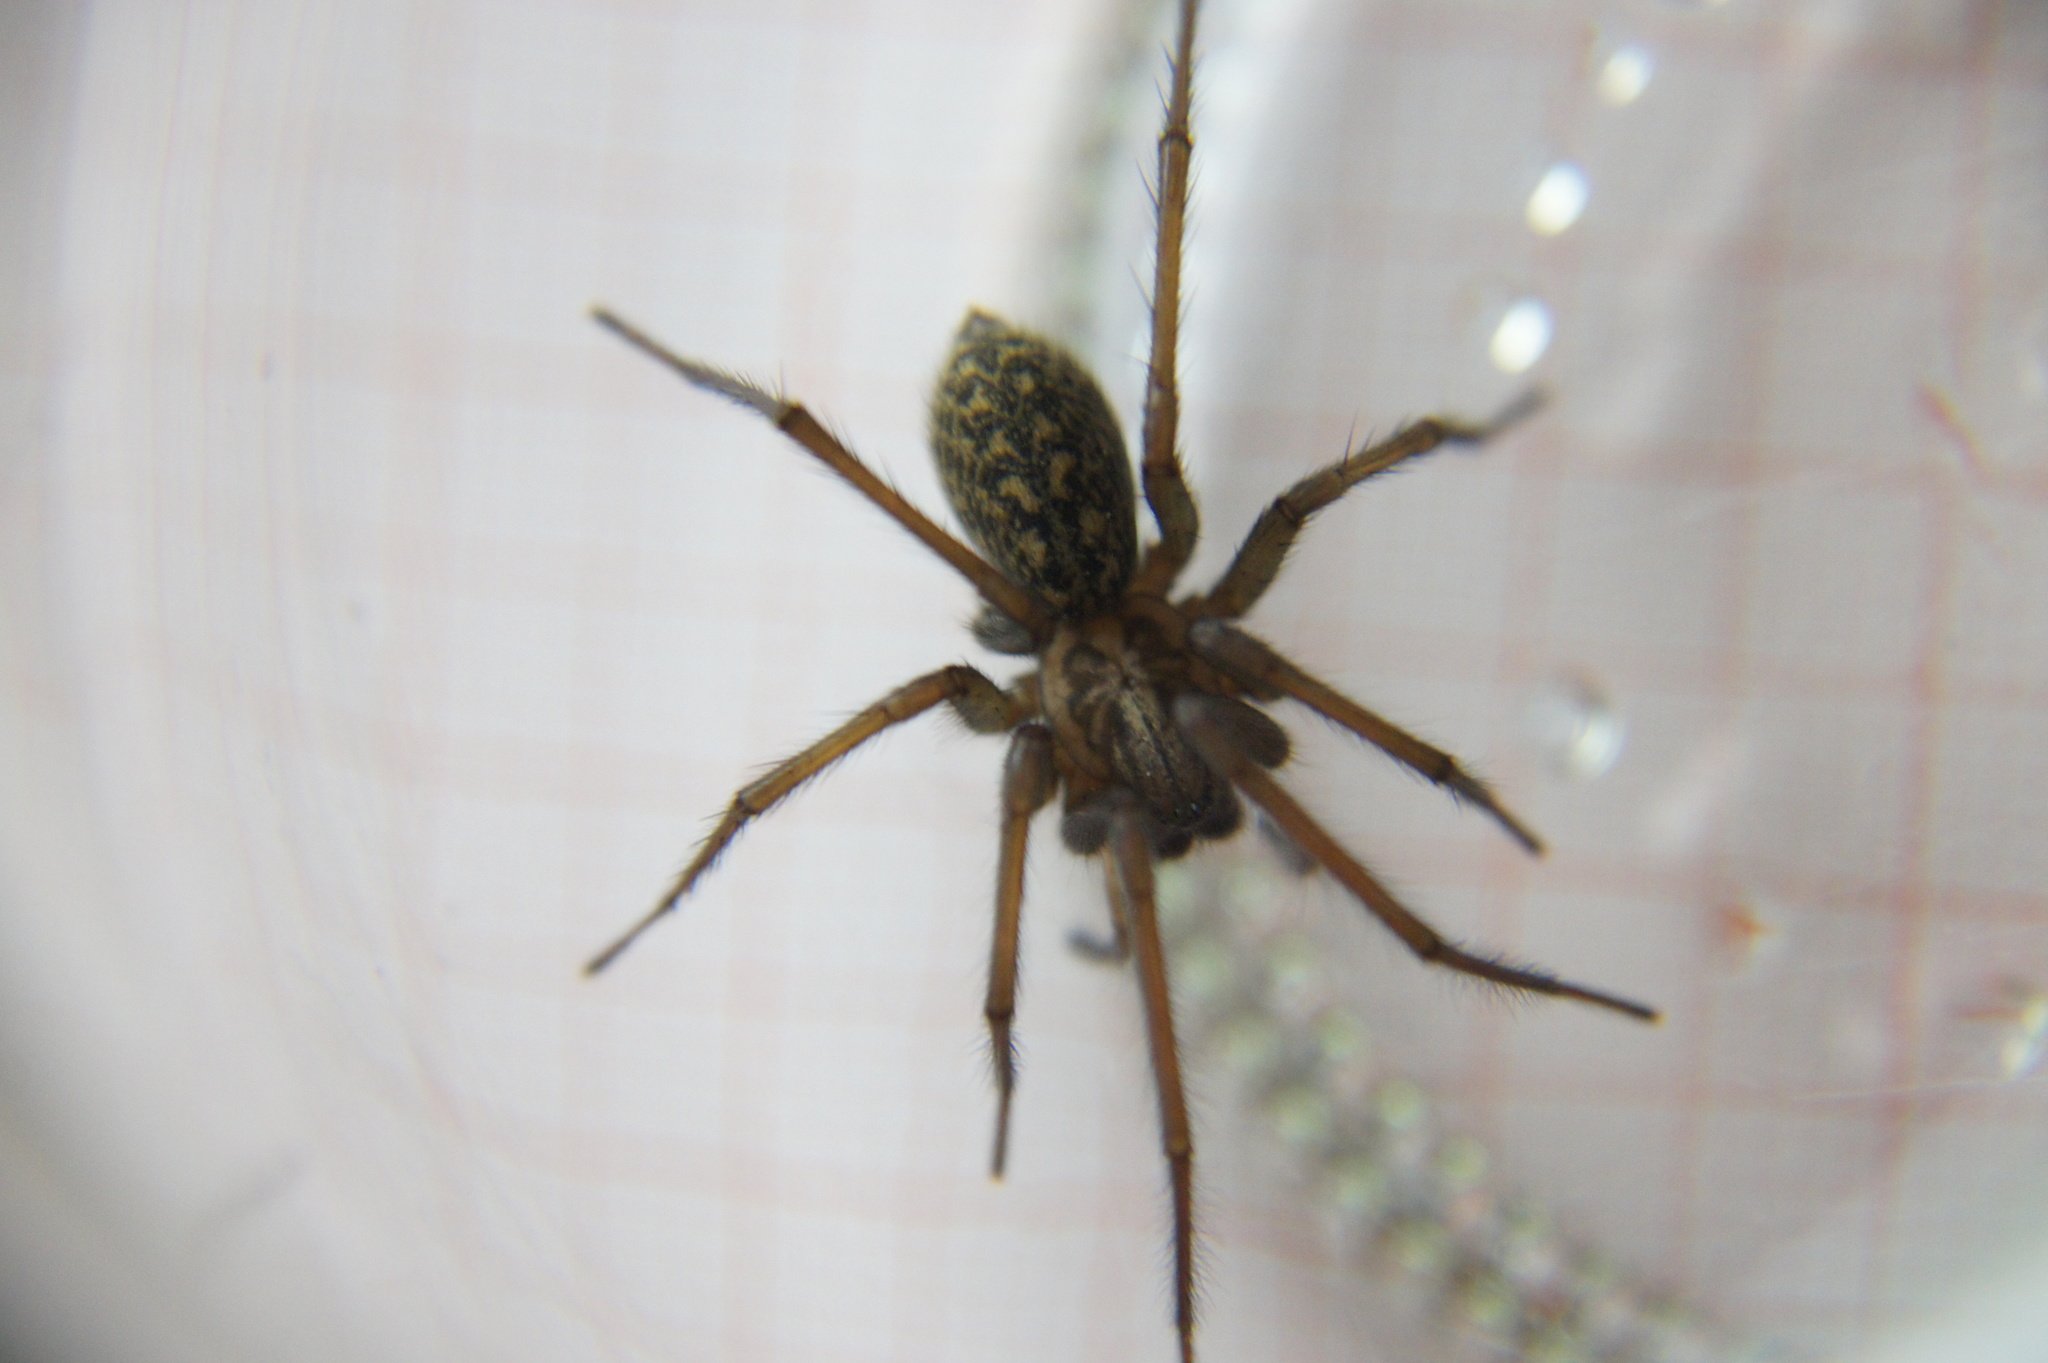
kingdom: Animalia
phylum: Arthropoda
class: Arachnida
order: Araneae
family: Agelenidae
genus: Eratigena
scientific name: Eratigena atrica
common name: Giant house spider
